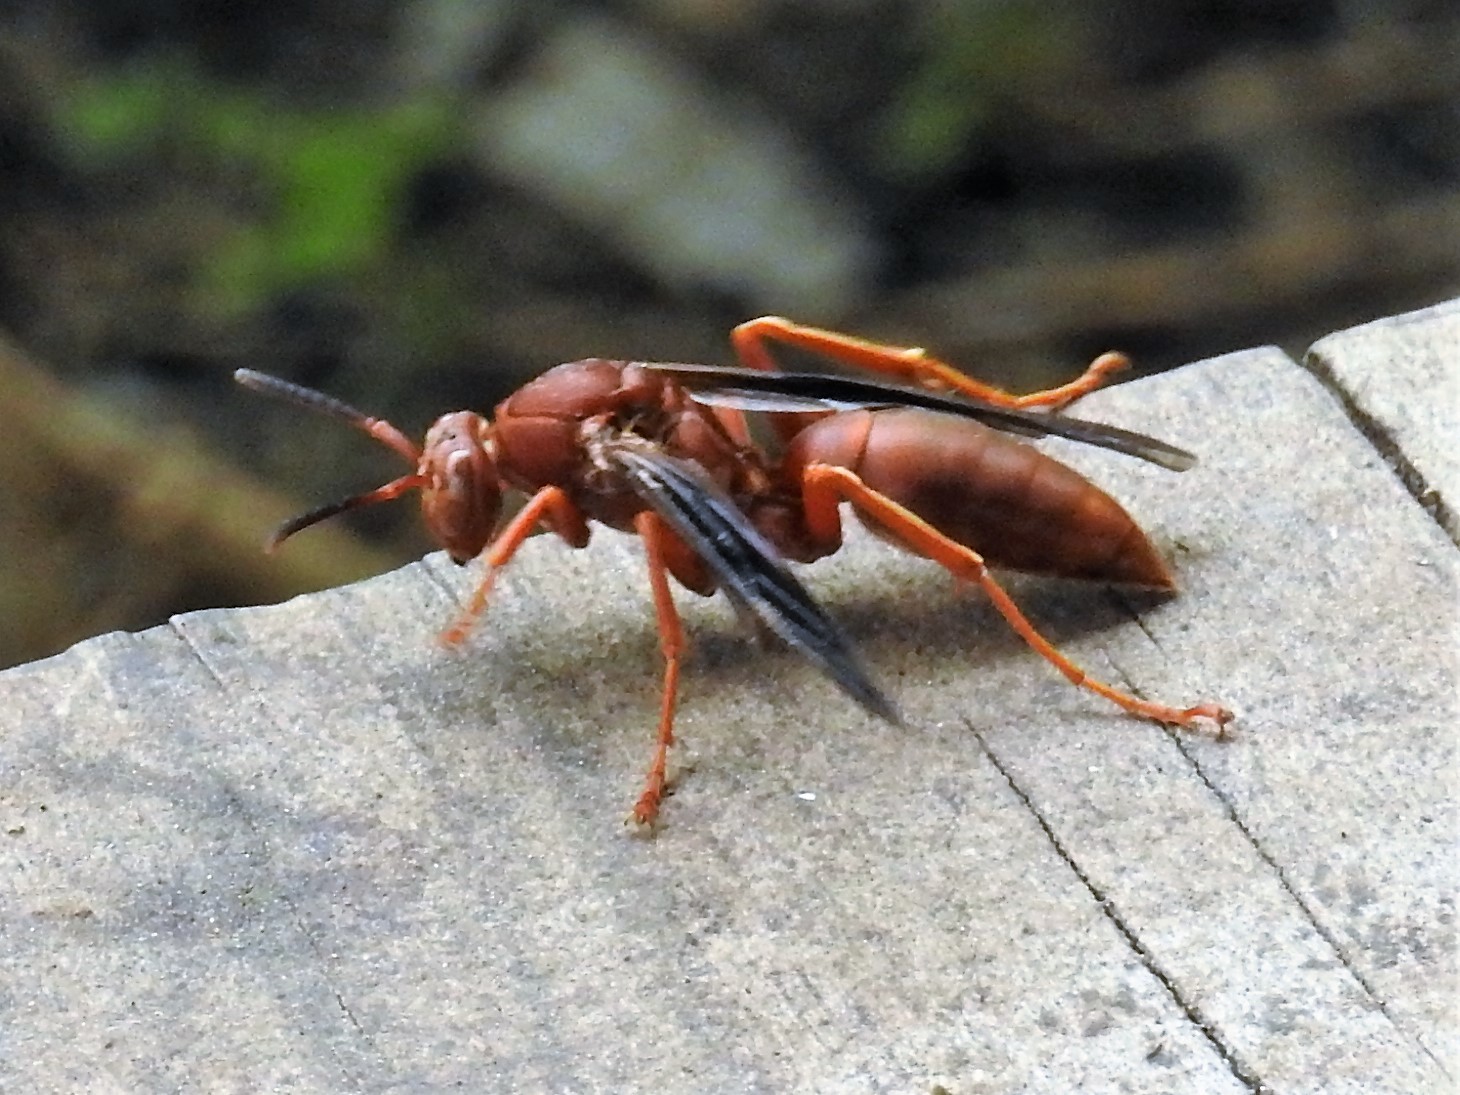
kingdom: Animalia
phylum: Arthropoda
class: Insecta
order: Hymenoptera
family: Eumenidae
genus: Polistes
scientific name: Polistes carolina
